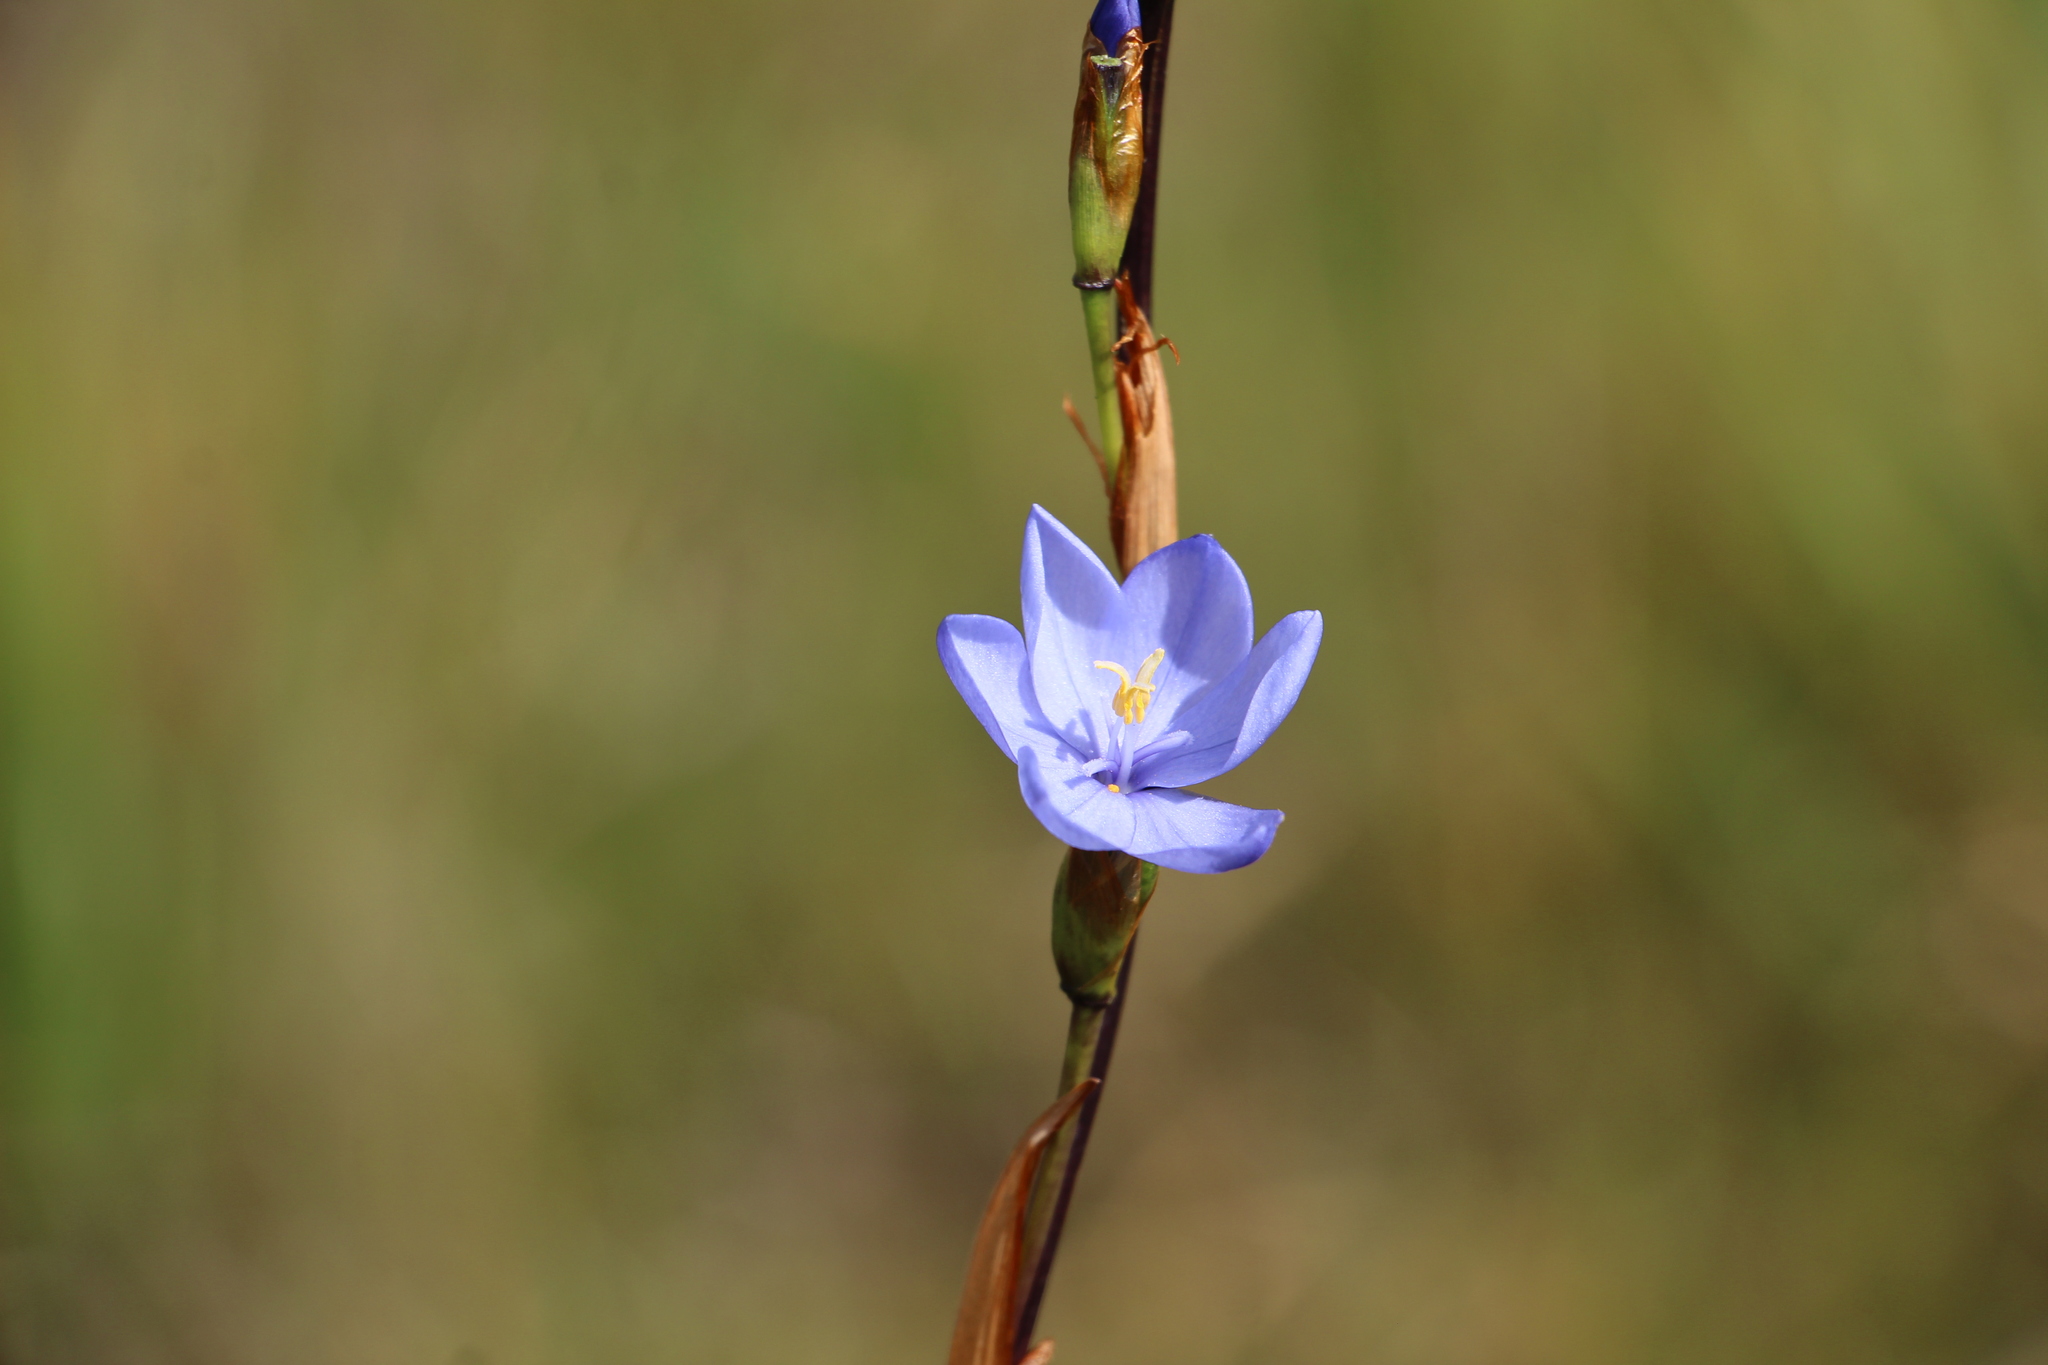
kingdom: Plantae
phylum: Tracheophyta
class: Liliopsida
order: Asparagales
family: Iridaceae
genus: Orthrosanthus
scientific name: Orthrosanthus chimboracensis
